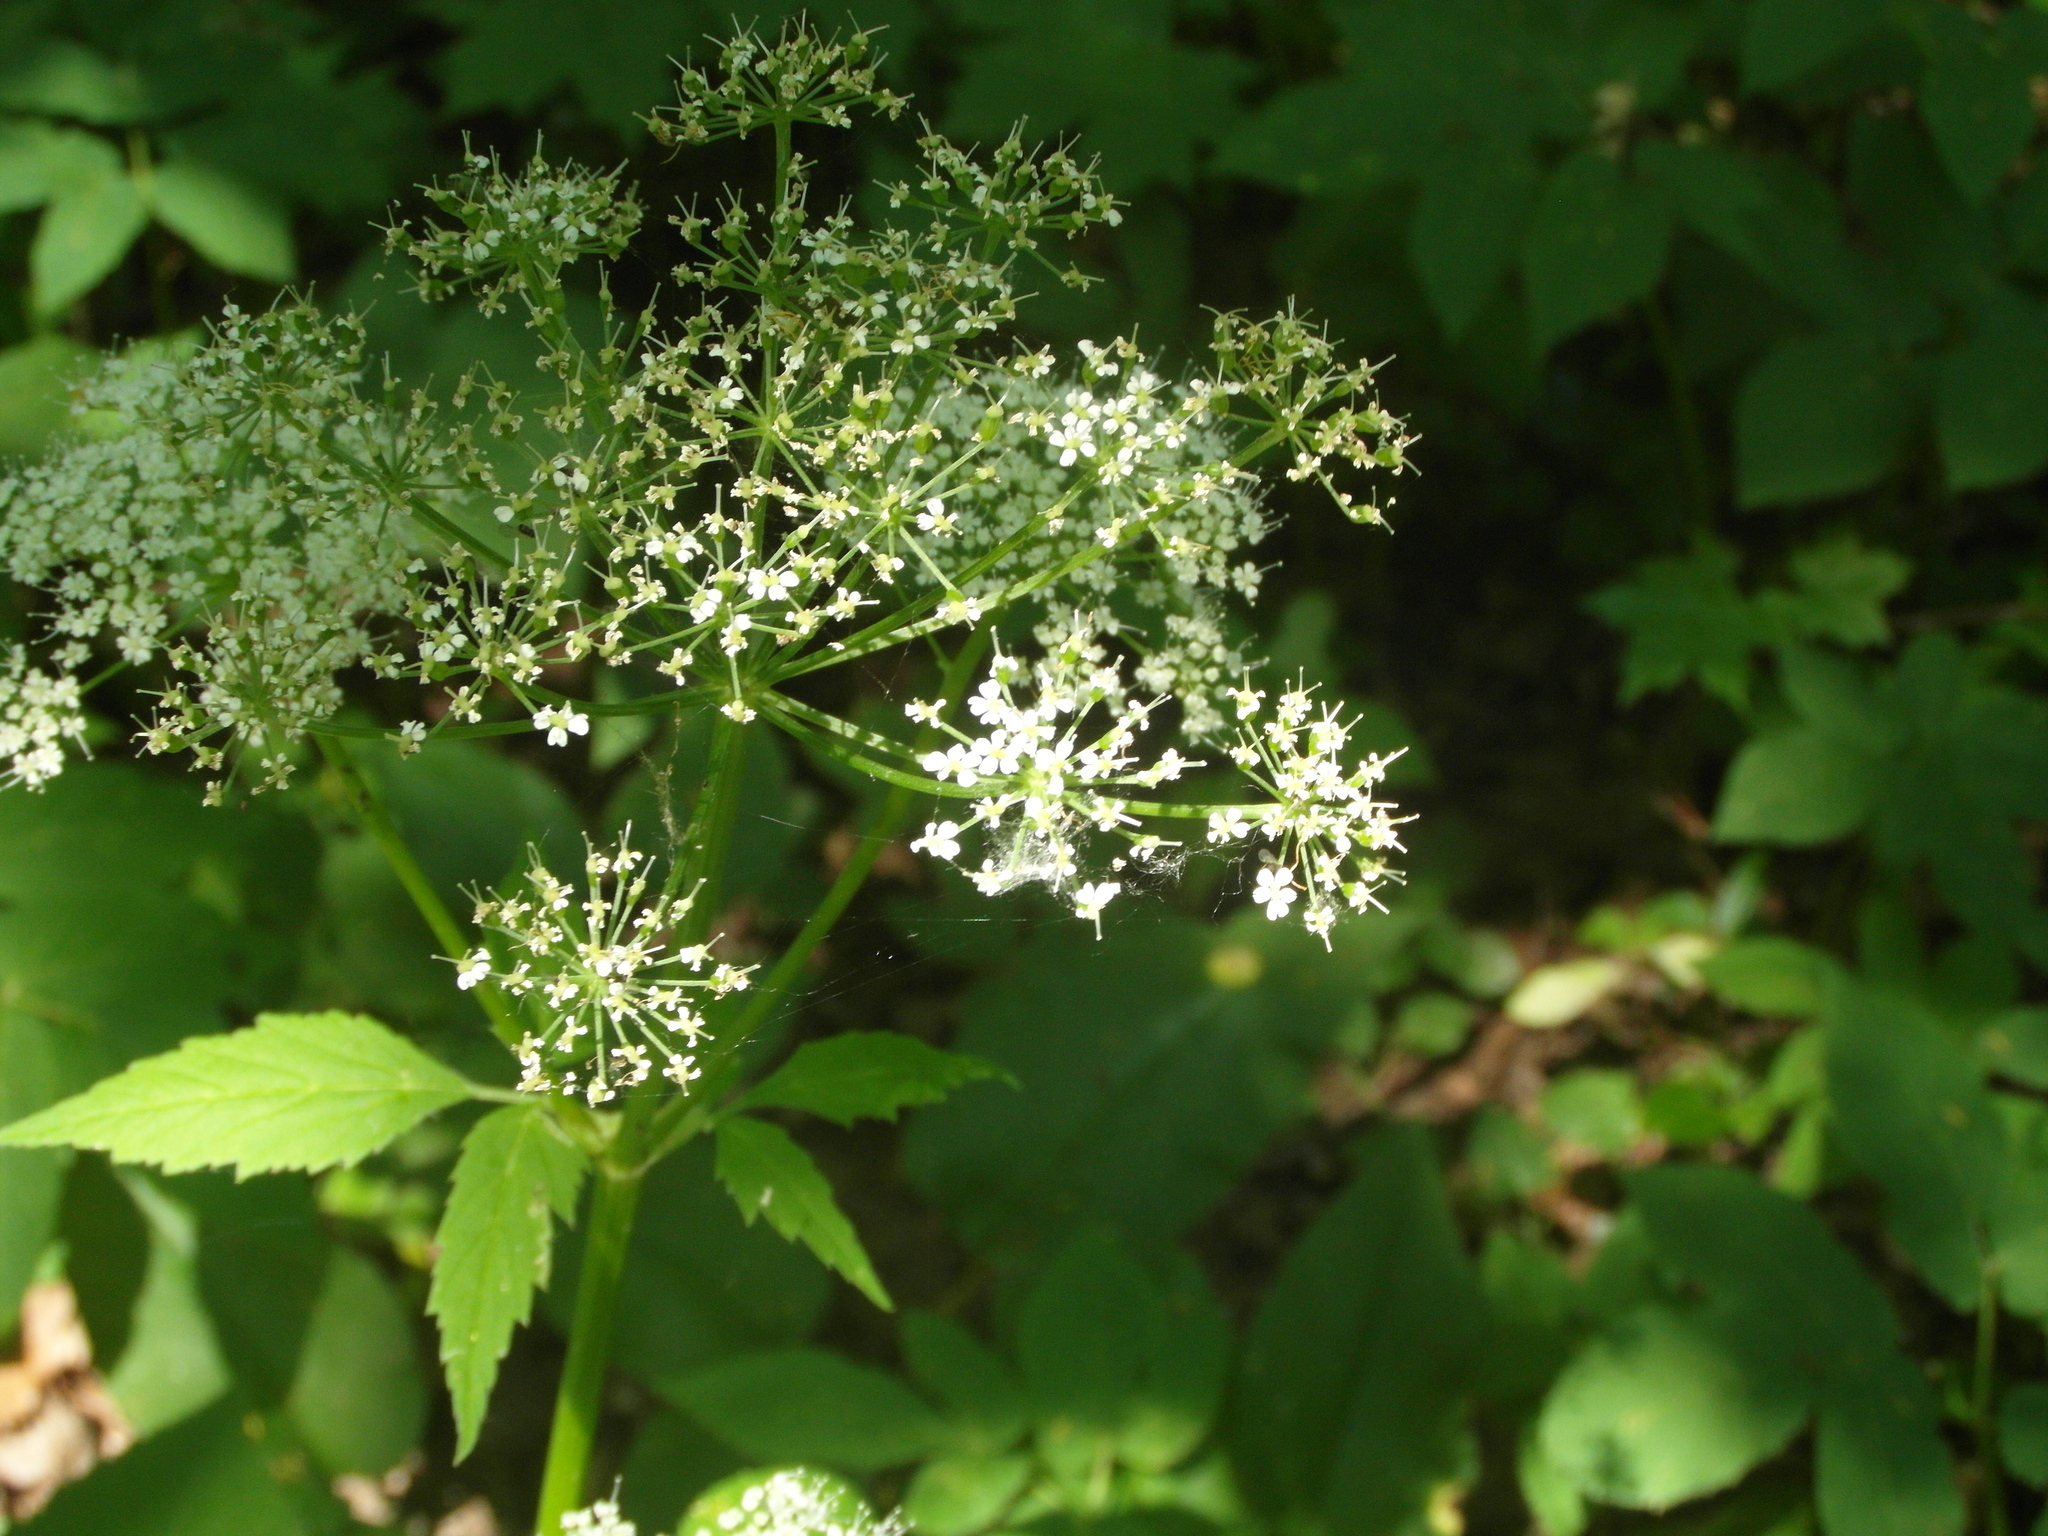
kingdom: Plantae
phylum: Tracheophyta
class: Magnoliopsida
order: Apiales
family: Apiaceae
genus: Aegopodium
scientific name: Aegopodium podagraria
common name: Ground-elder
